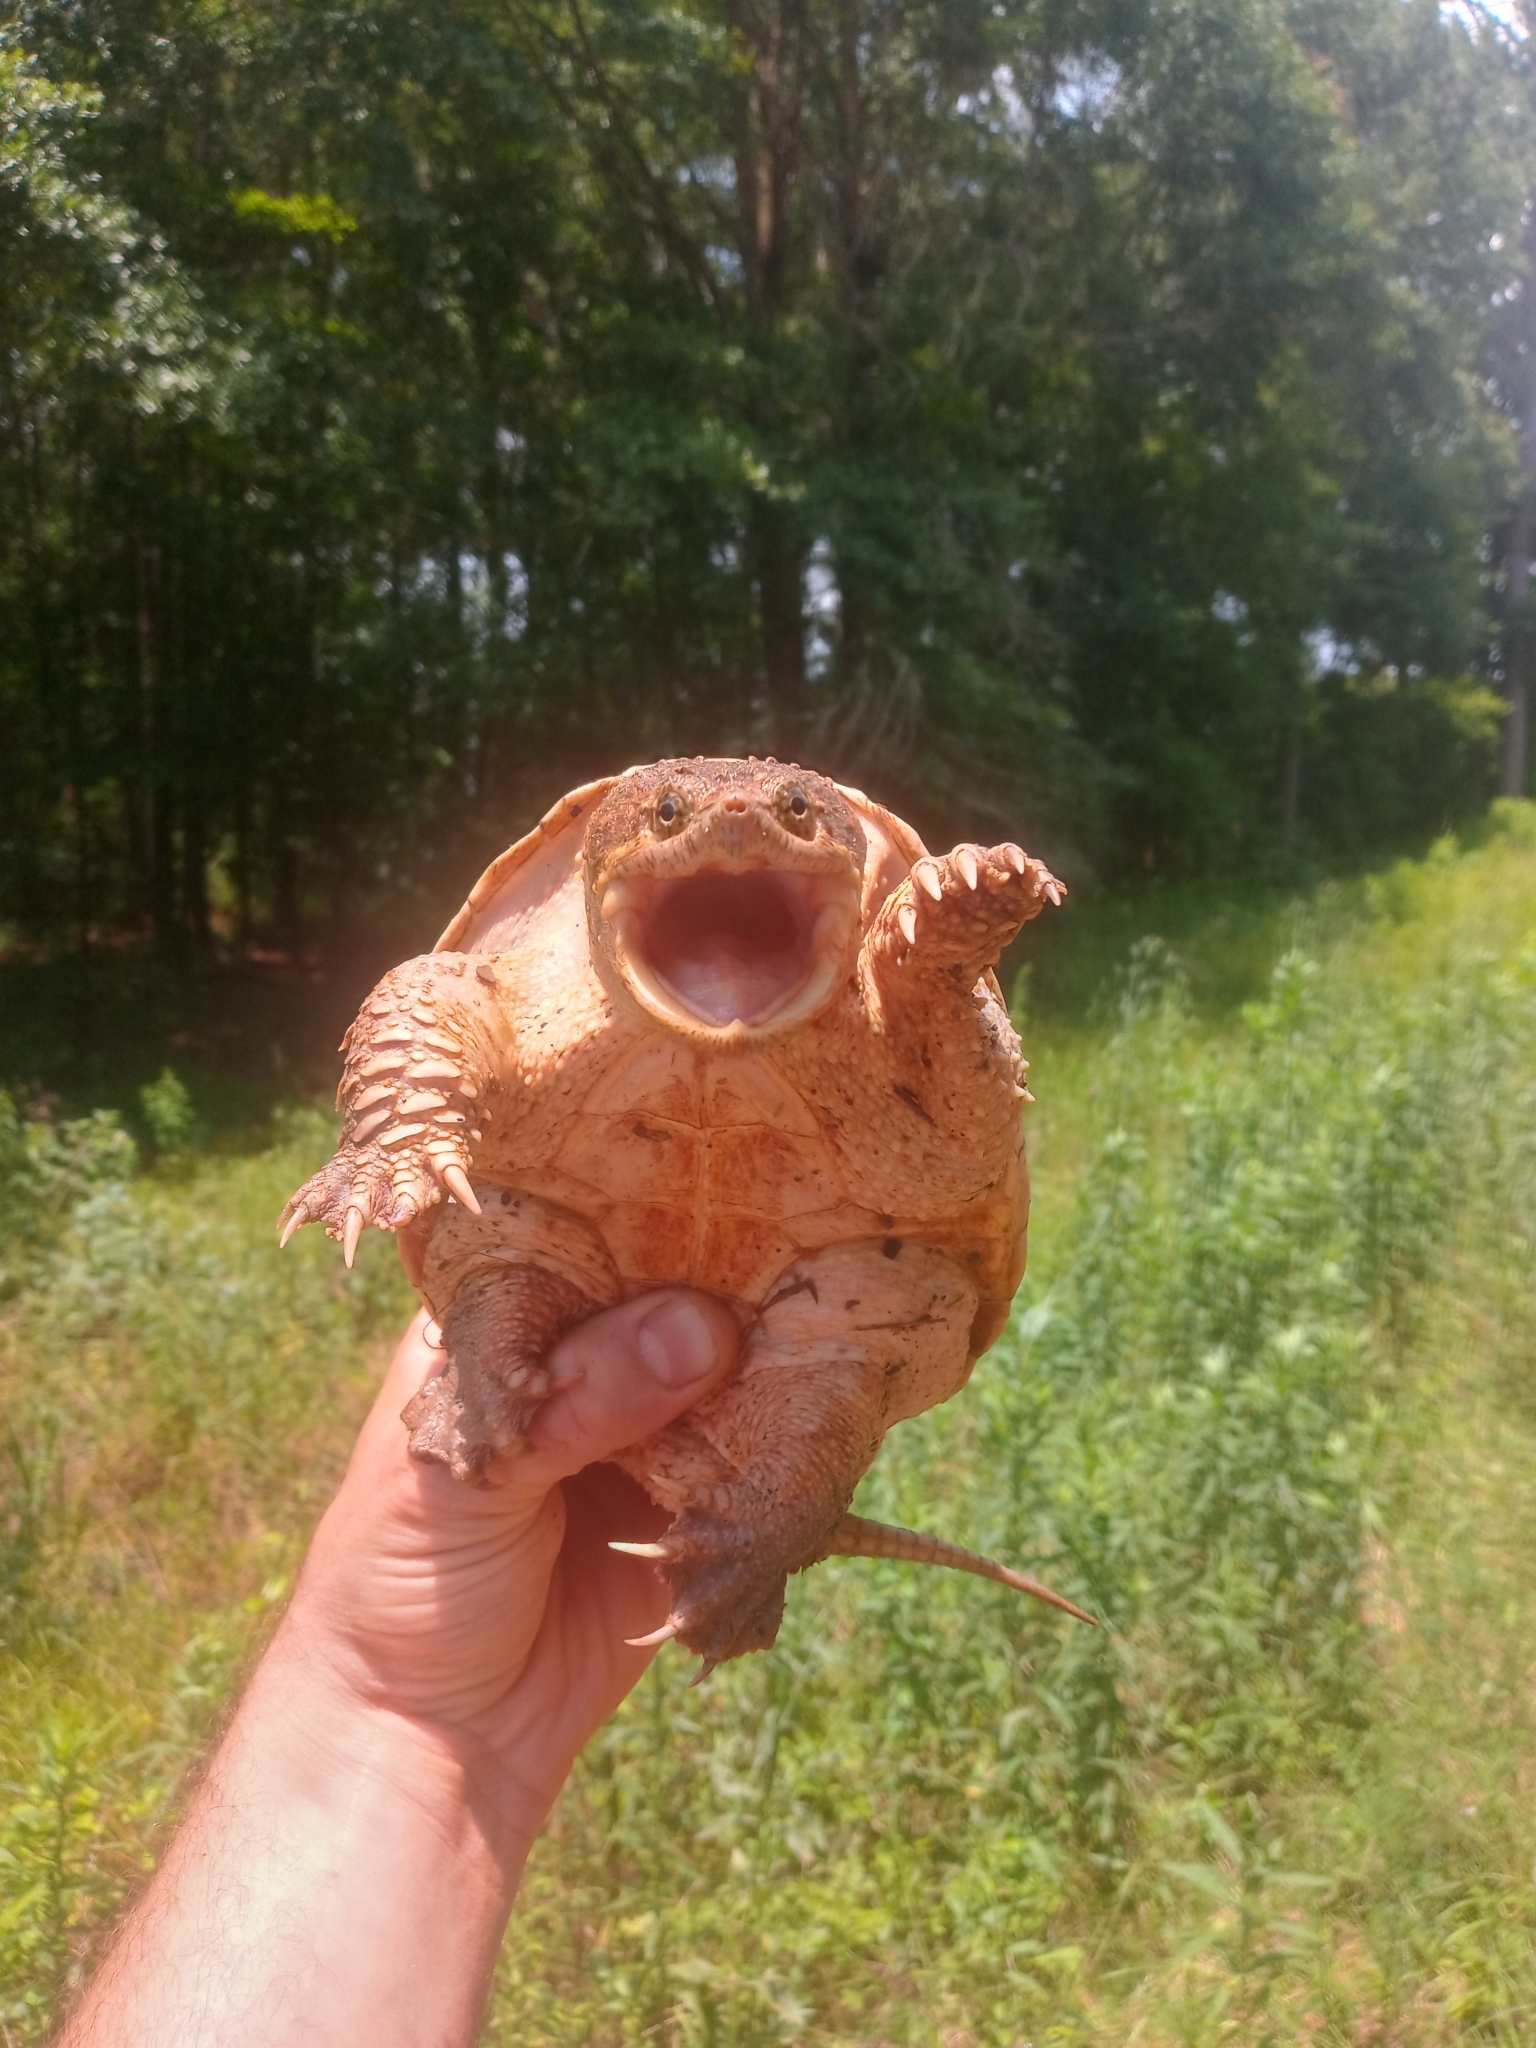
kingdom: Animalia
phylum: Chordata
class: Testudines
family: Chelydridae
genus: Chelydra
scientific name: Chelydra serpentina
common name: Common snapping turtle
